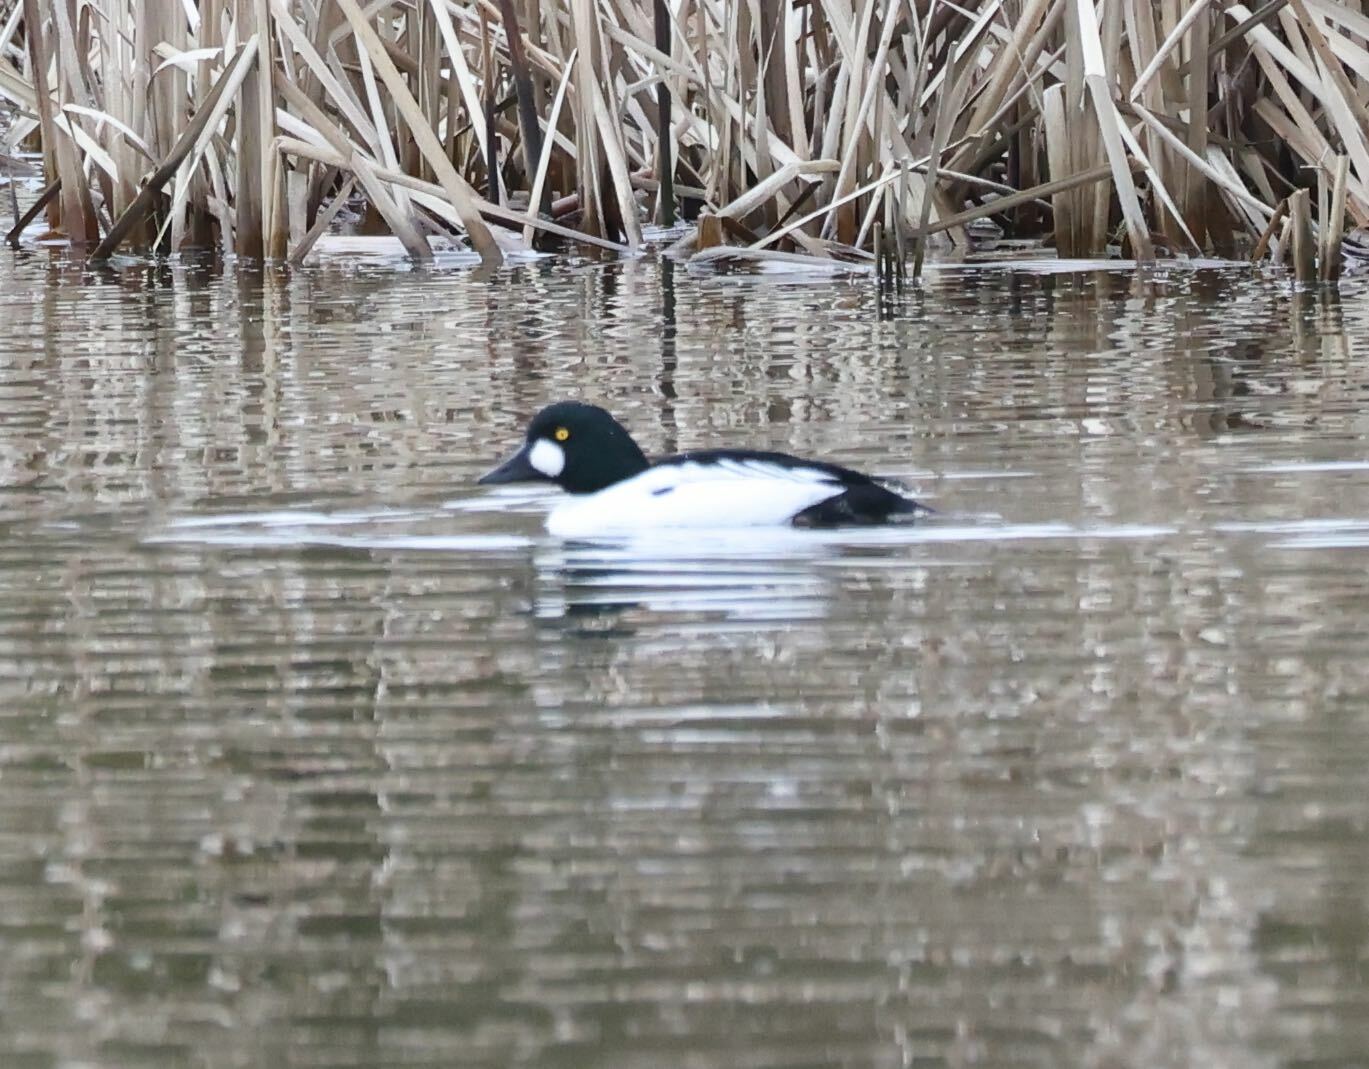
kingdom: Animalia
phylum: Chordata
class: Aves
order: Anseriformes
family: Anatidae
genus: Bucephala
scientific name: Bucephala clangula
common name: Common goldeneye
